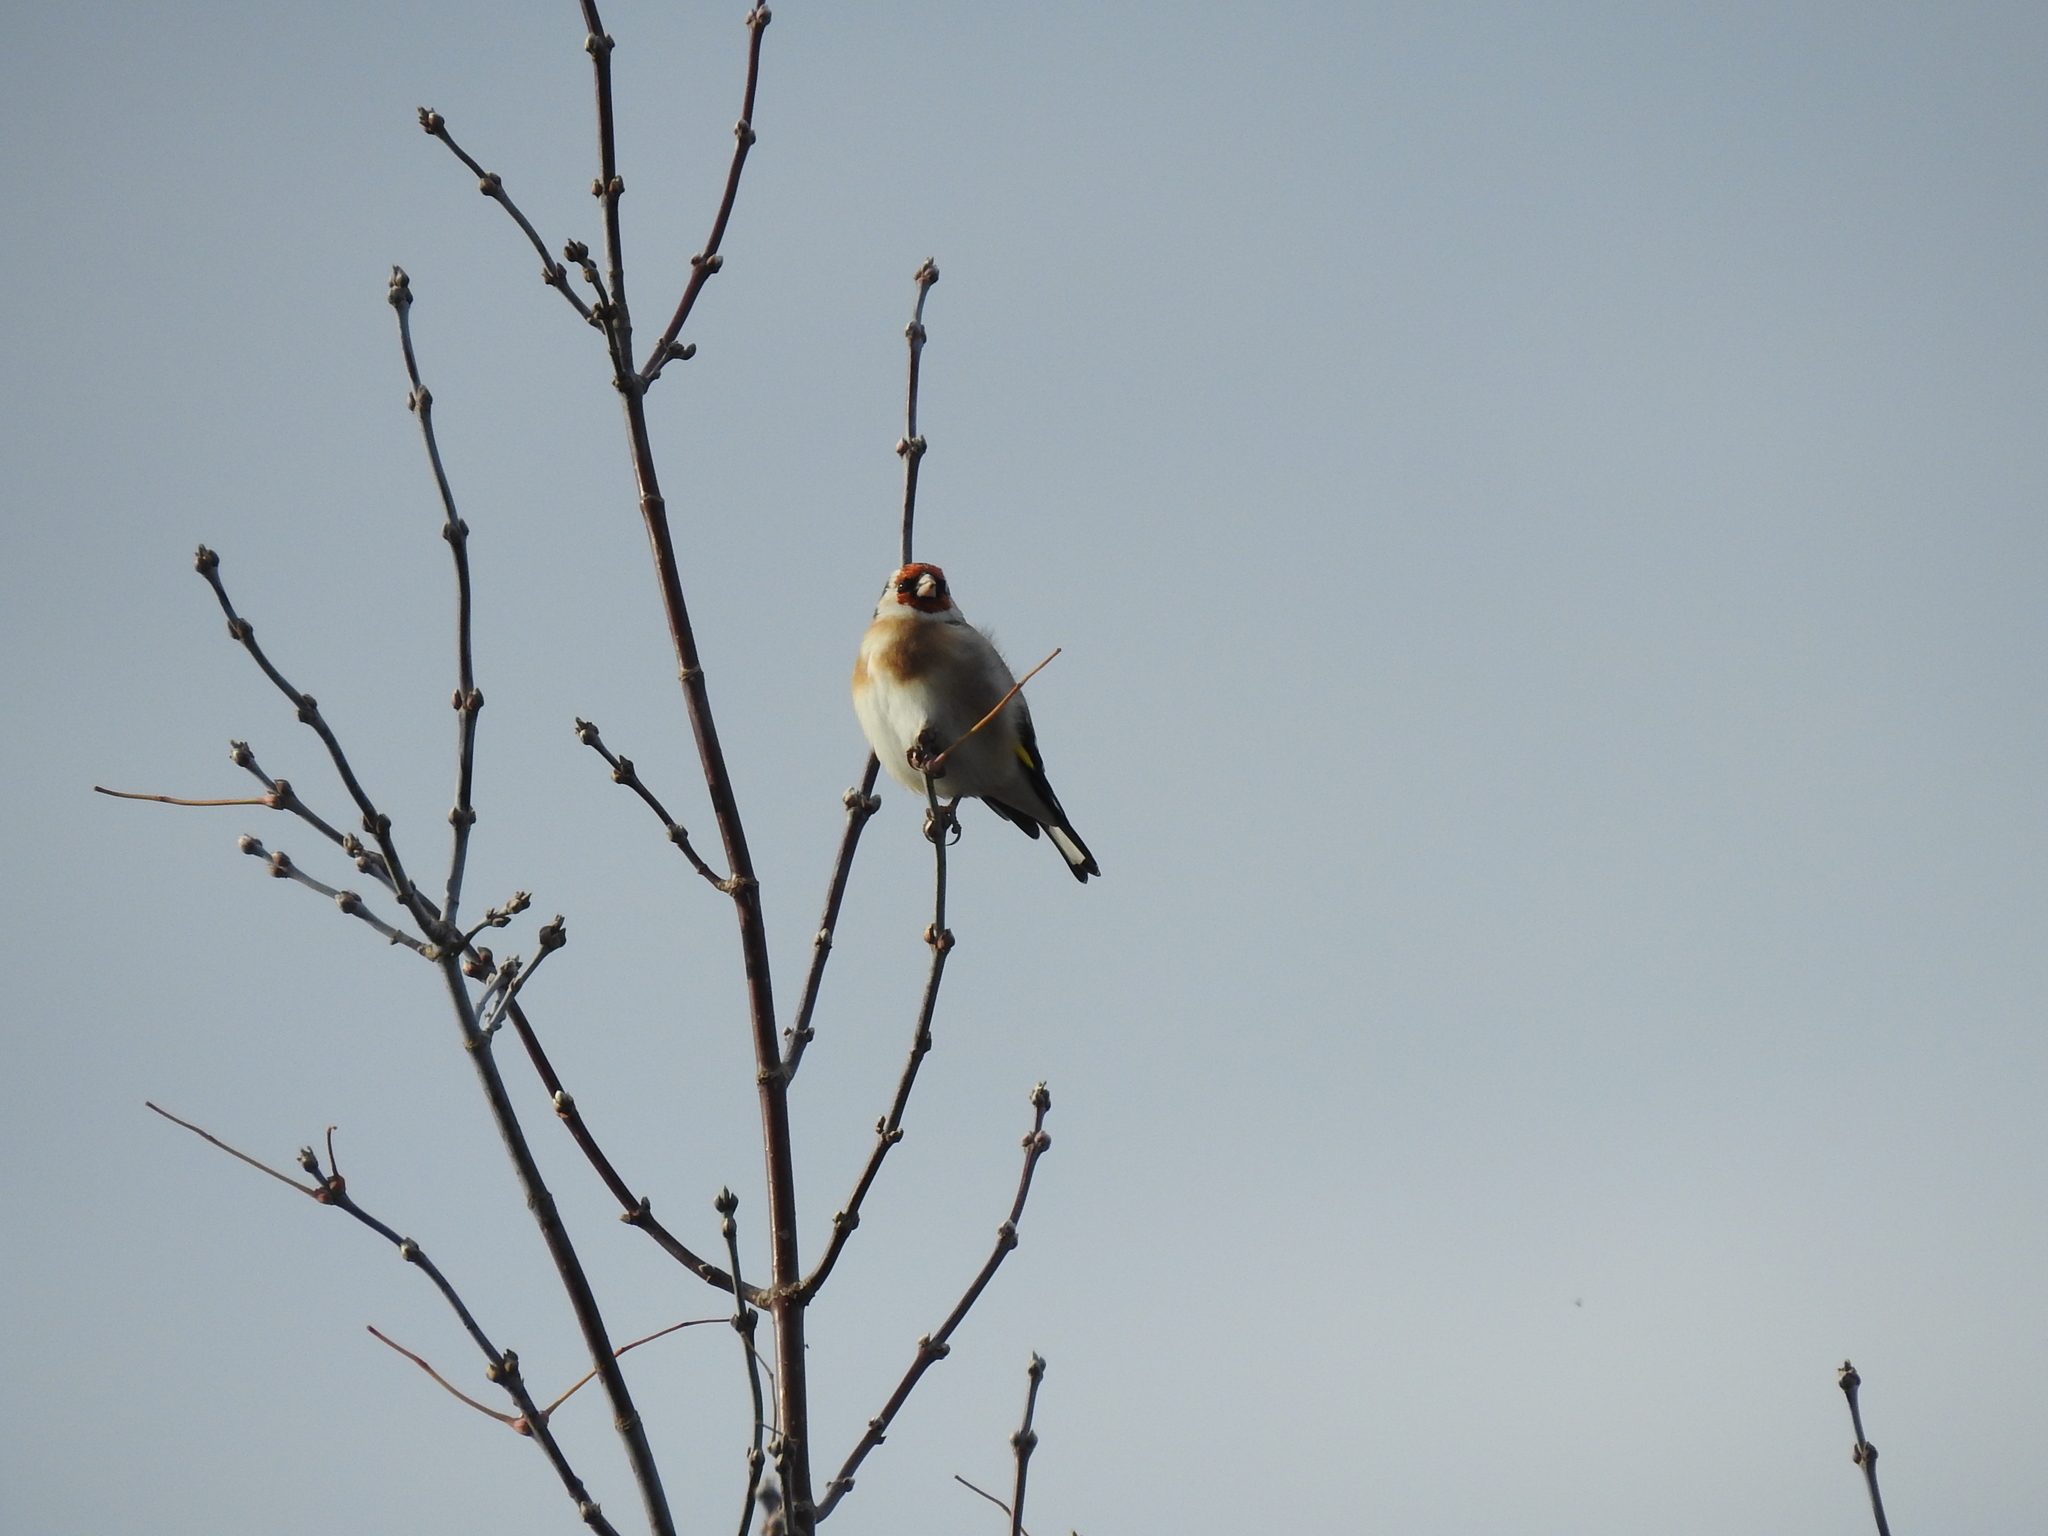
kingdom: Animalia
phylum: Chordata
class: Aves
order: Passeriformes
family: Fringillidae
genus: Carduelis
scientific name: Carduelis carduelis
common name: European goldfinch
